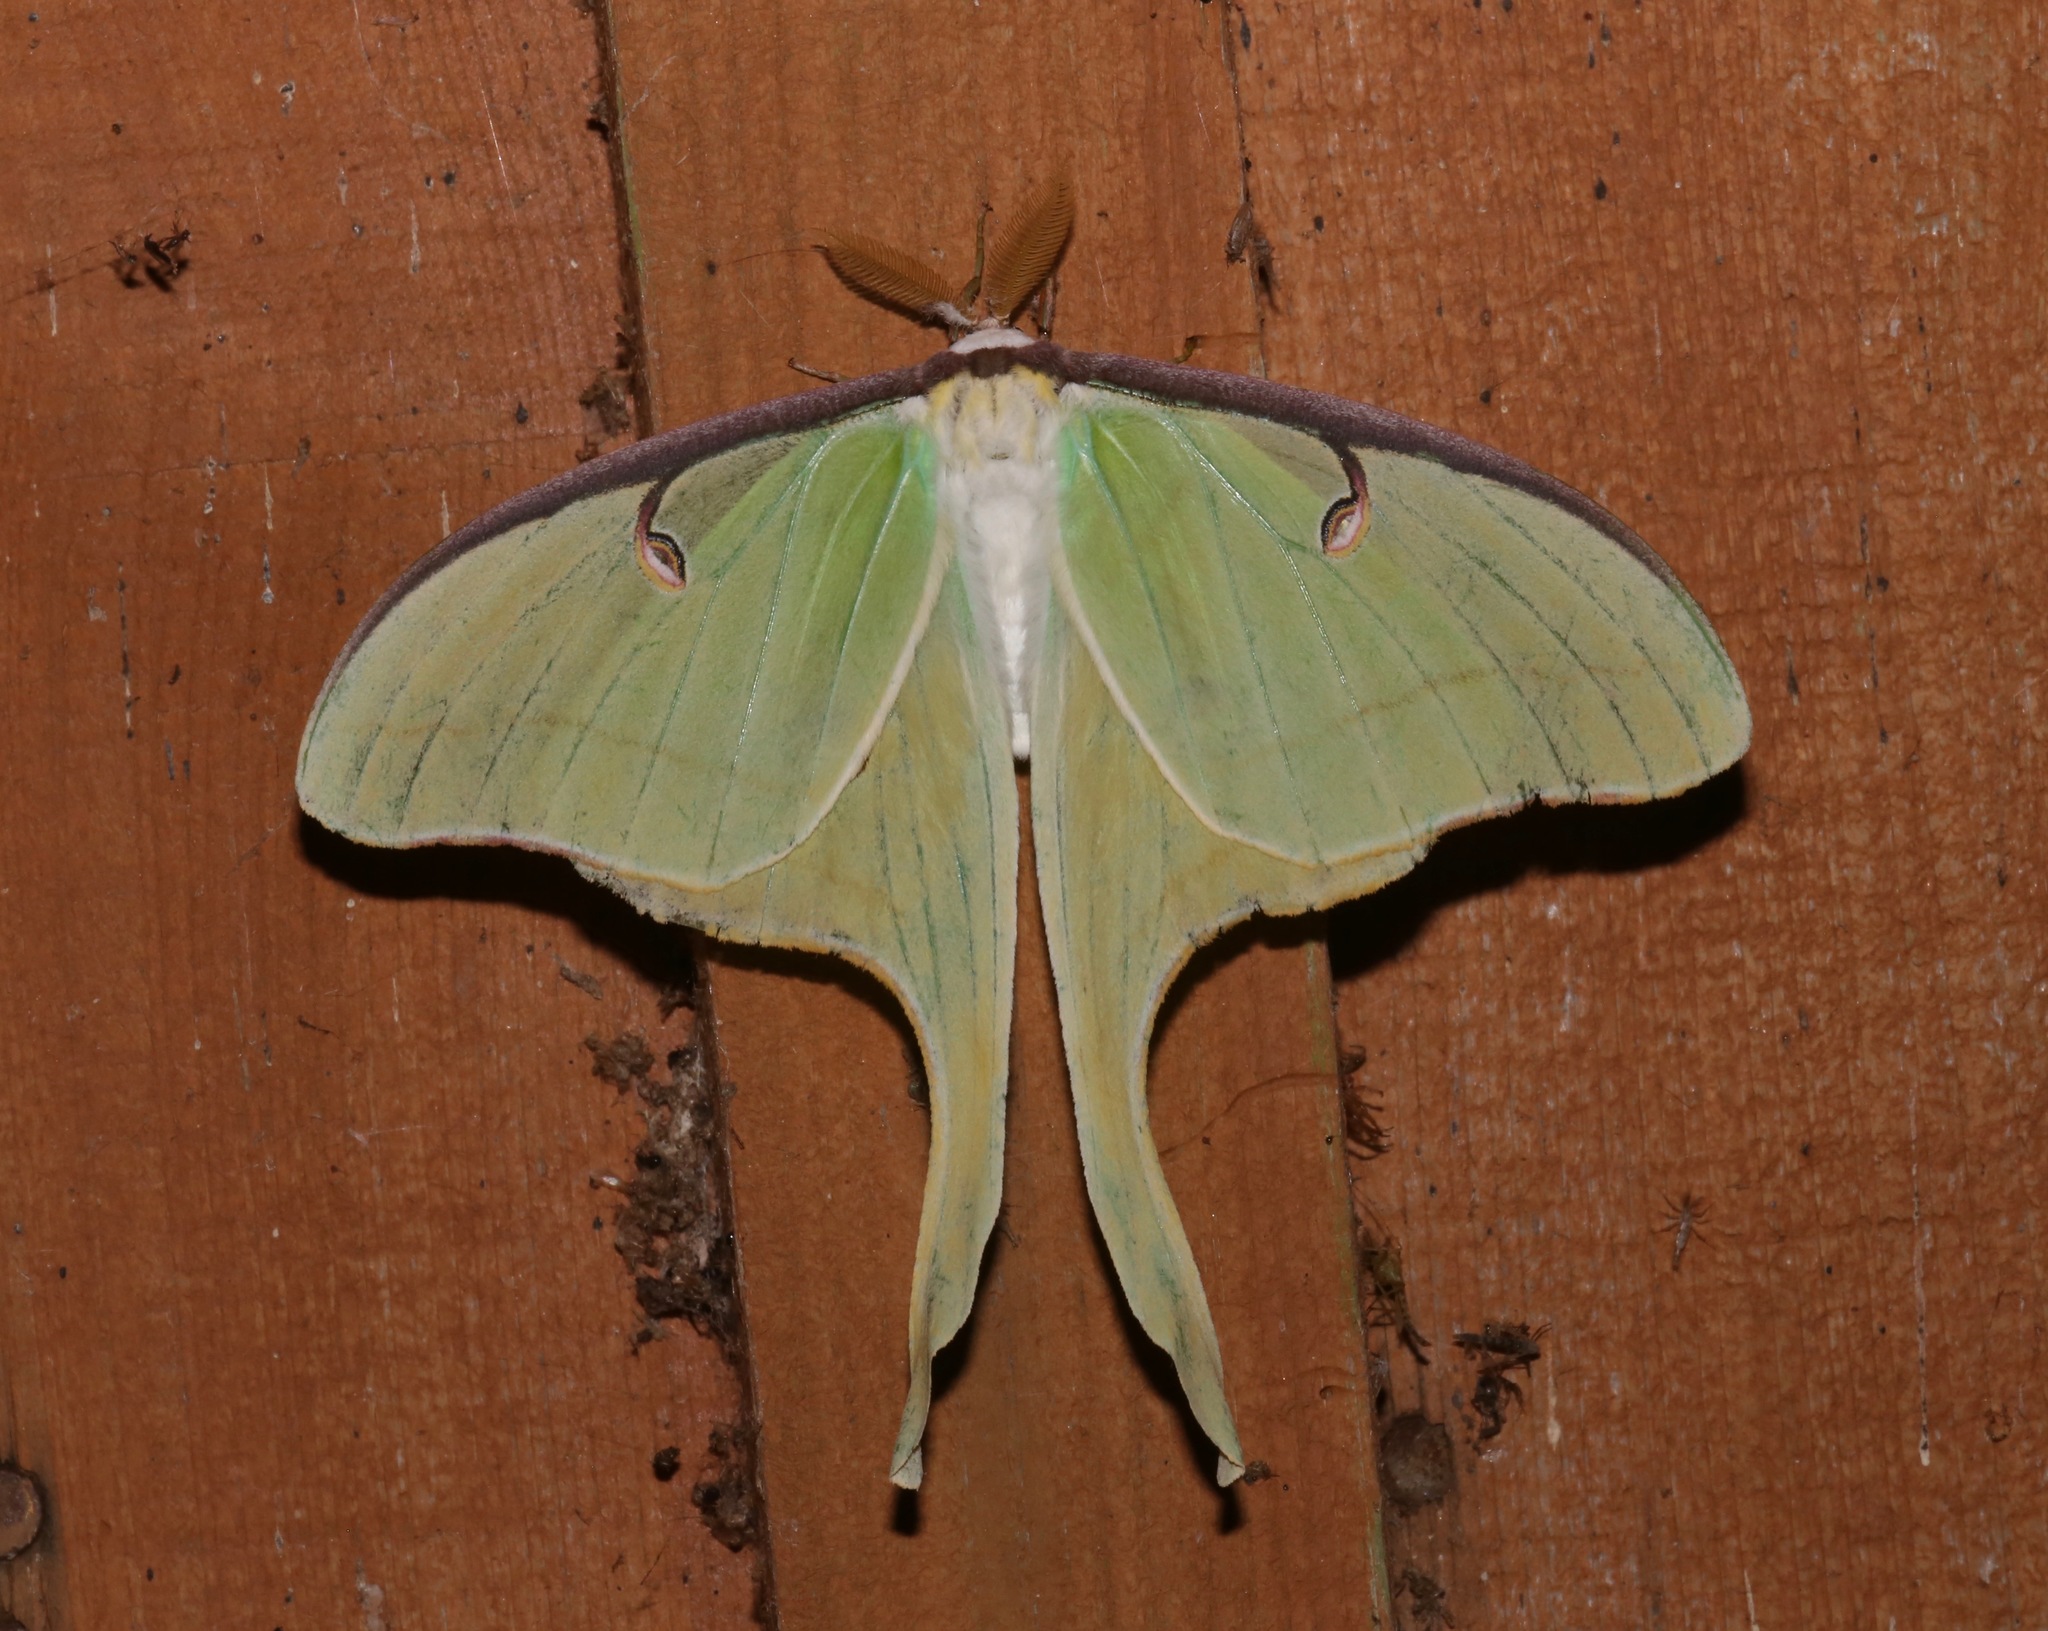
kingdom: Animalia
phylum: Arthropoda
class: Insecta
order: Lepidoptera
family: Saturniidae
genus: Actias
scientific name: Actias luna
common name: Luna moth
